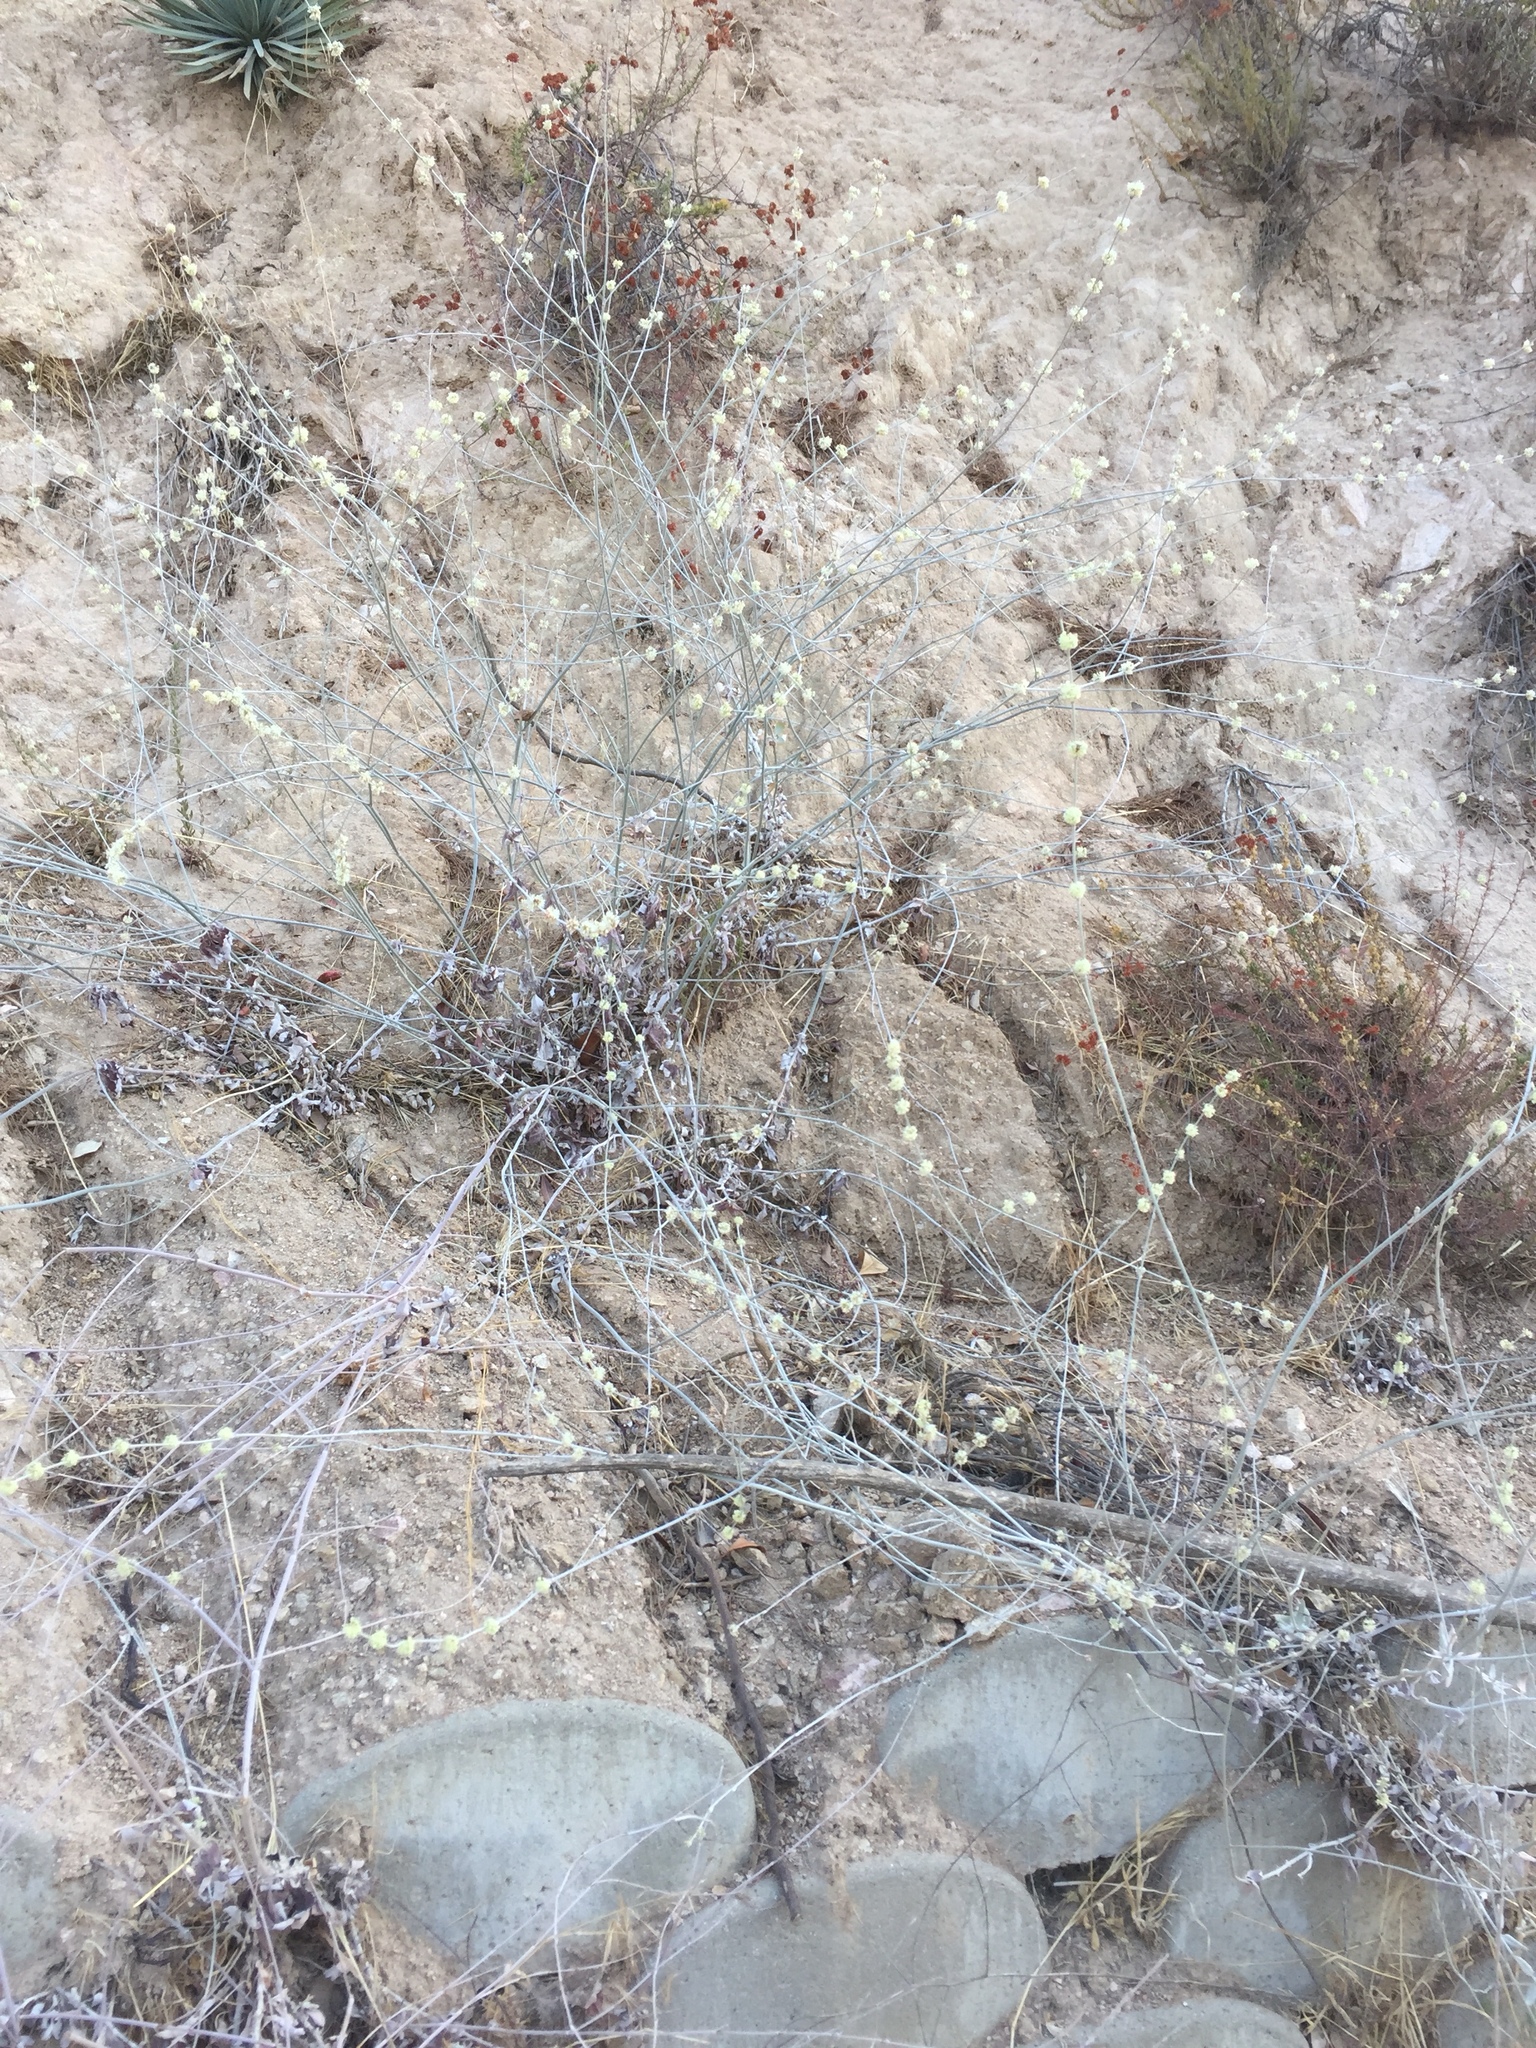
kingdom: Plantae
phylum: Tracheophyta
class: Magnoliopsida
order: Caryophyllales
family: Polygonaceae
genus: Eriogonum
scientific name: Eriogonum elongatum
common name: Long-stem wild buckwheat
